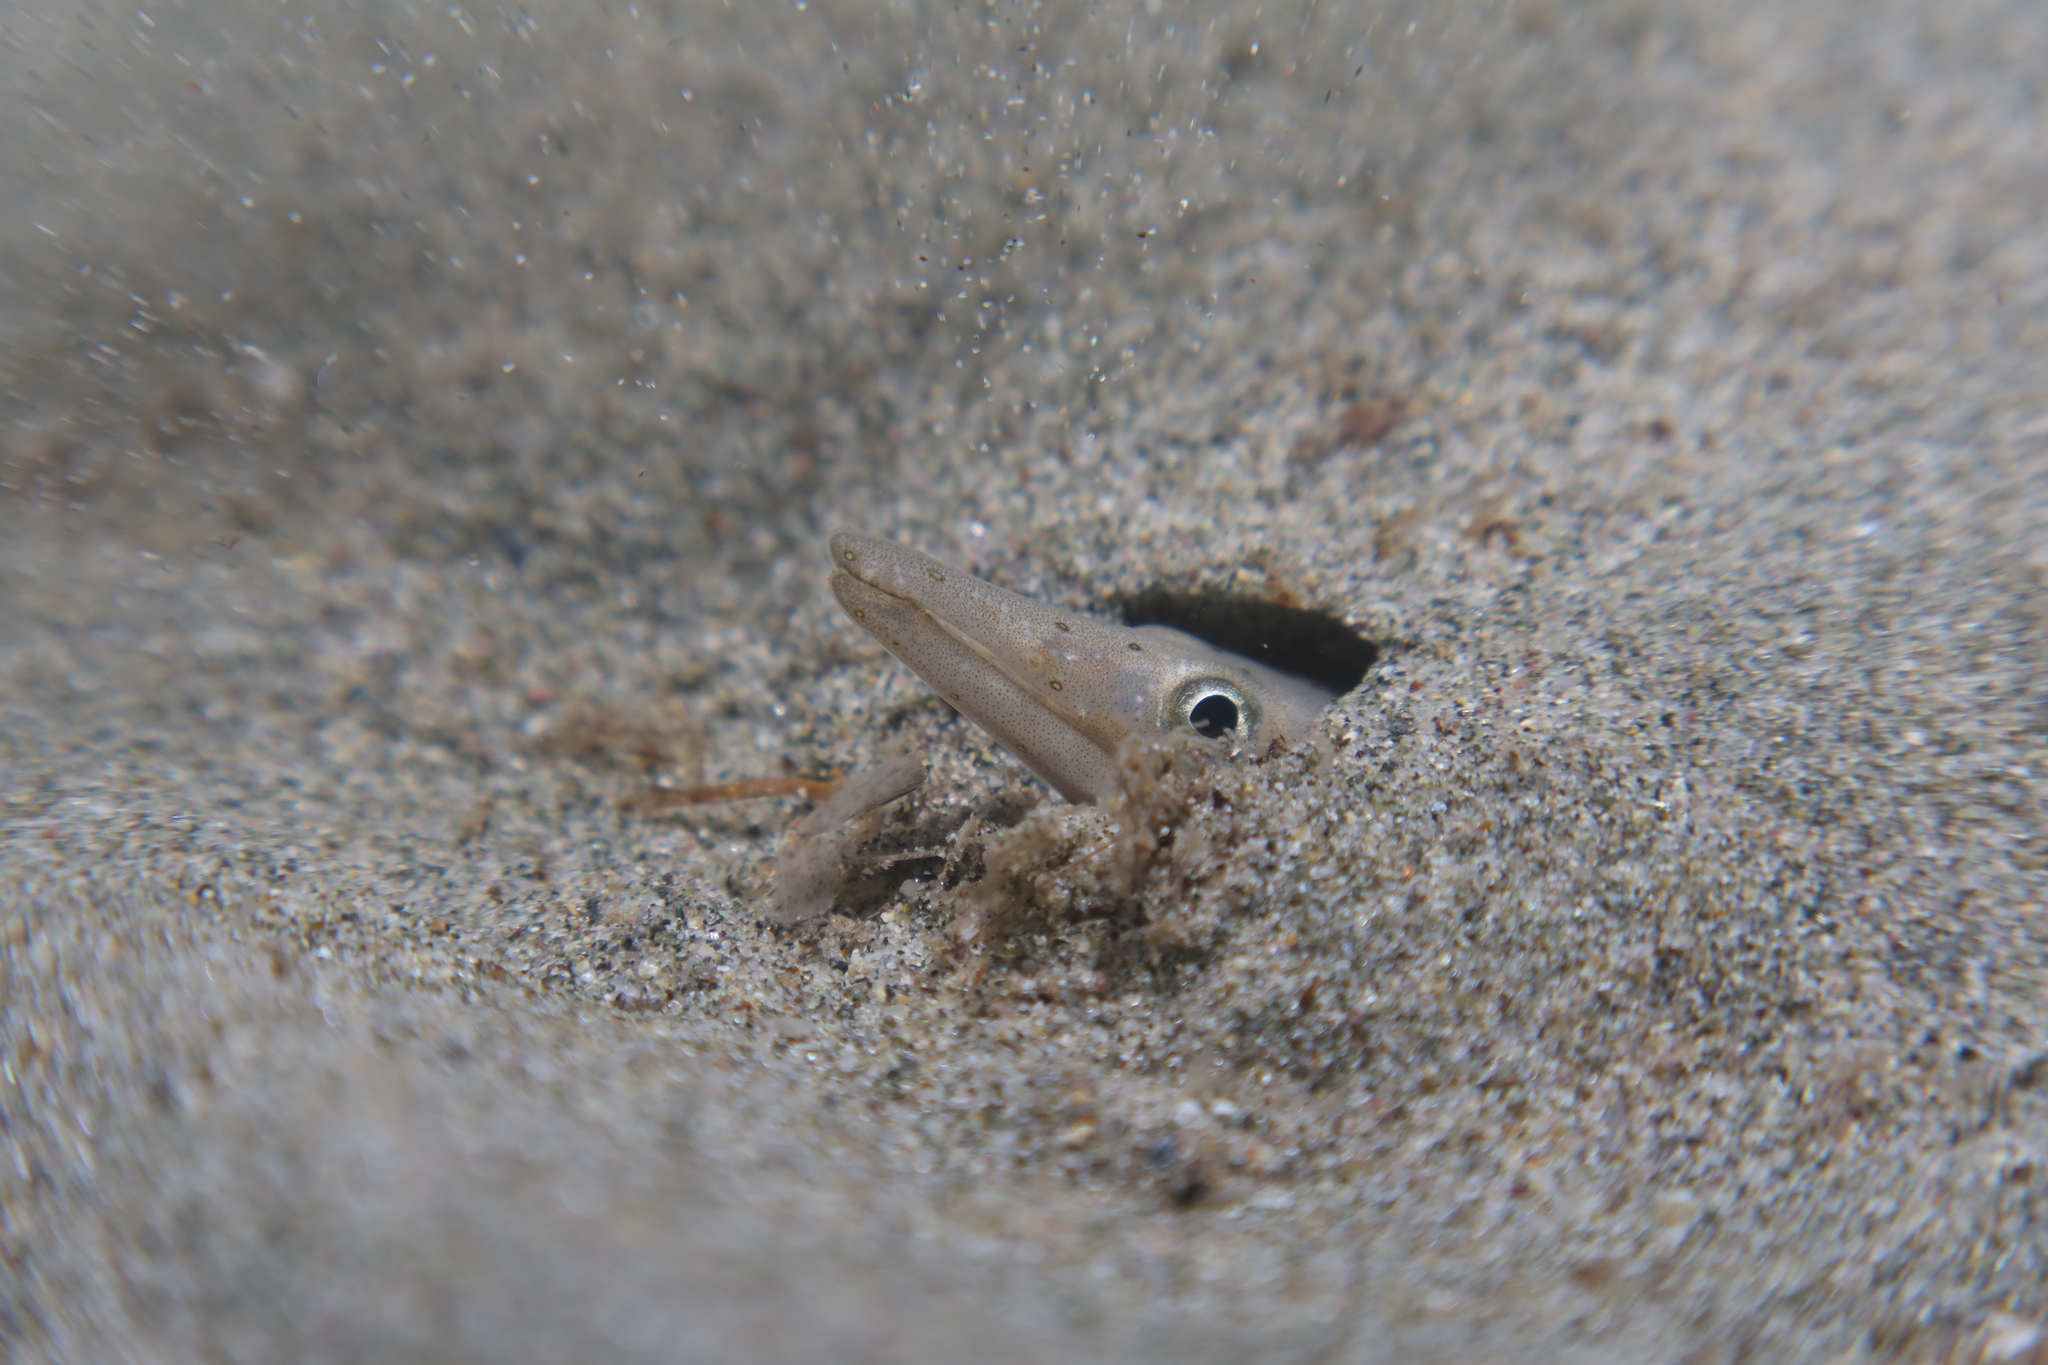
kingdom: Animalia
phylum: Chordata
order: Anguilliformes
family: Ophichthidae
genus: Ophisurus
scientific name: Ophisurus serpens
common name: Serpent eel
